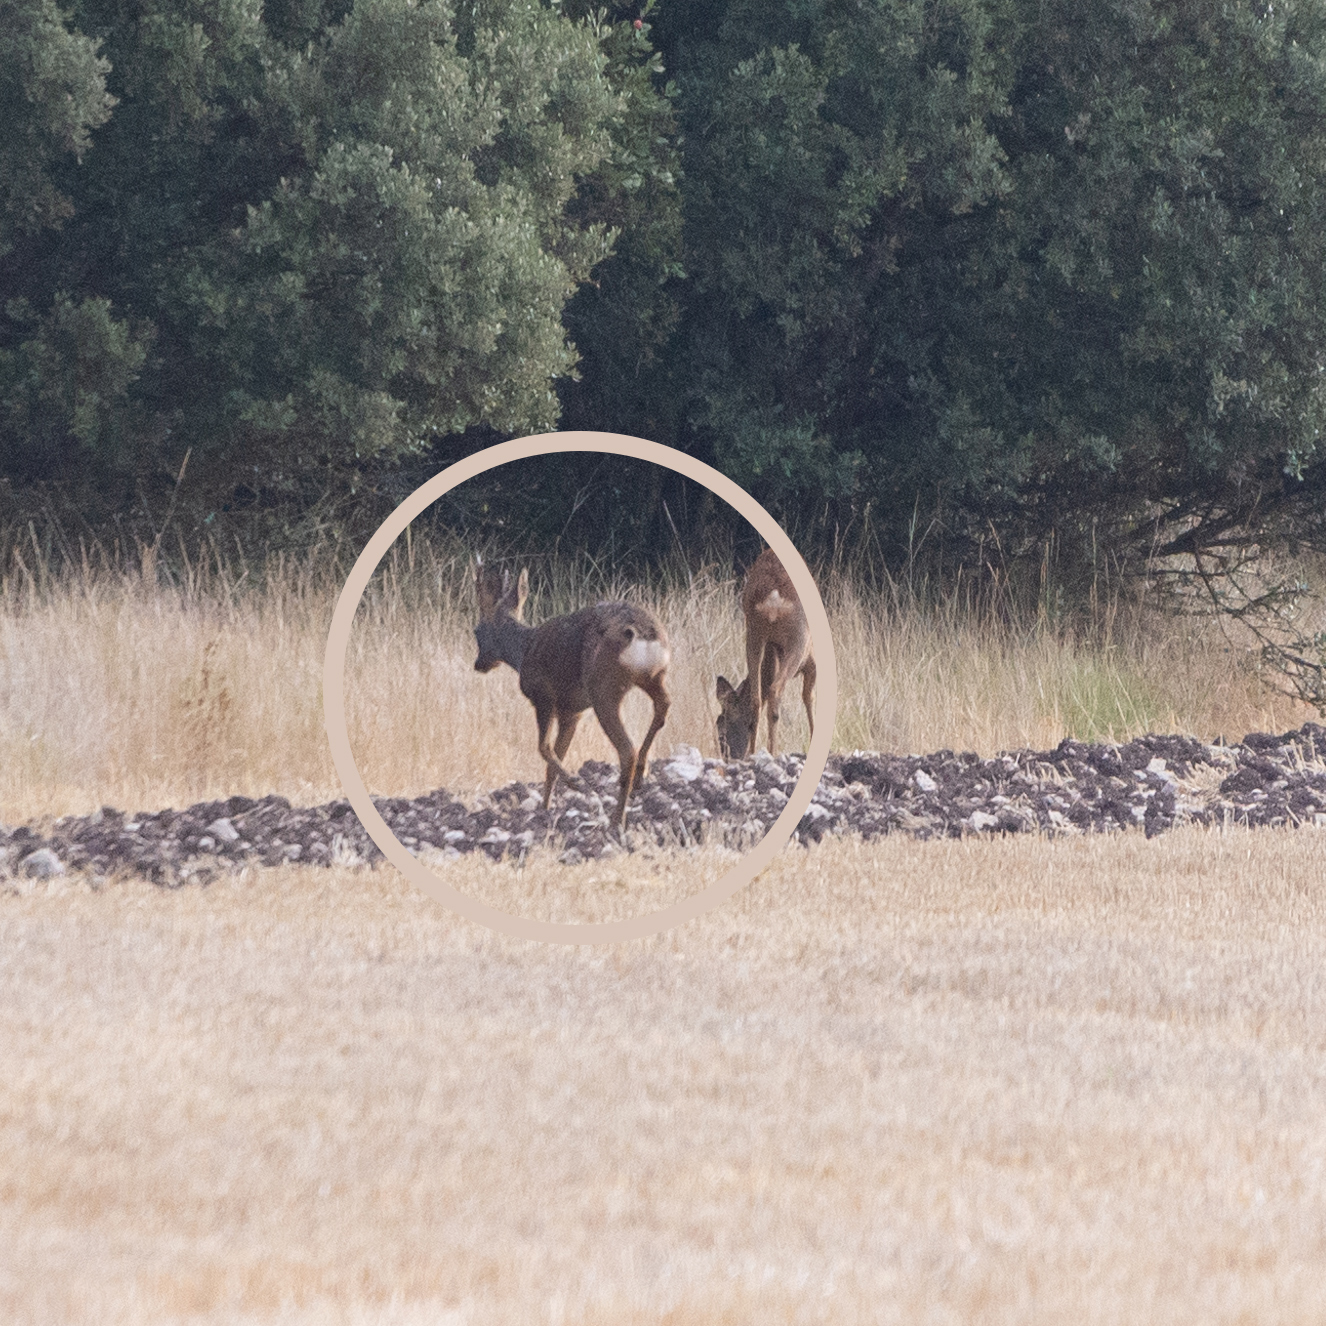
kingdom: Animalia
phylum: Chordata
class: Mammalia
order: Artiodactyla
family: Cervidae
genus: Capreolus
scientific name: Capreolus capreolus
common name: Western roe deer
